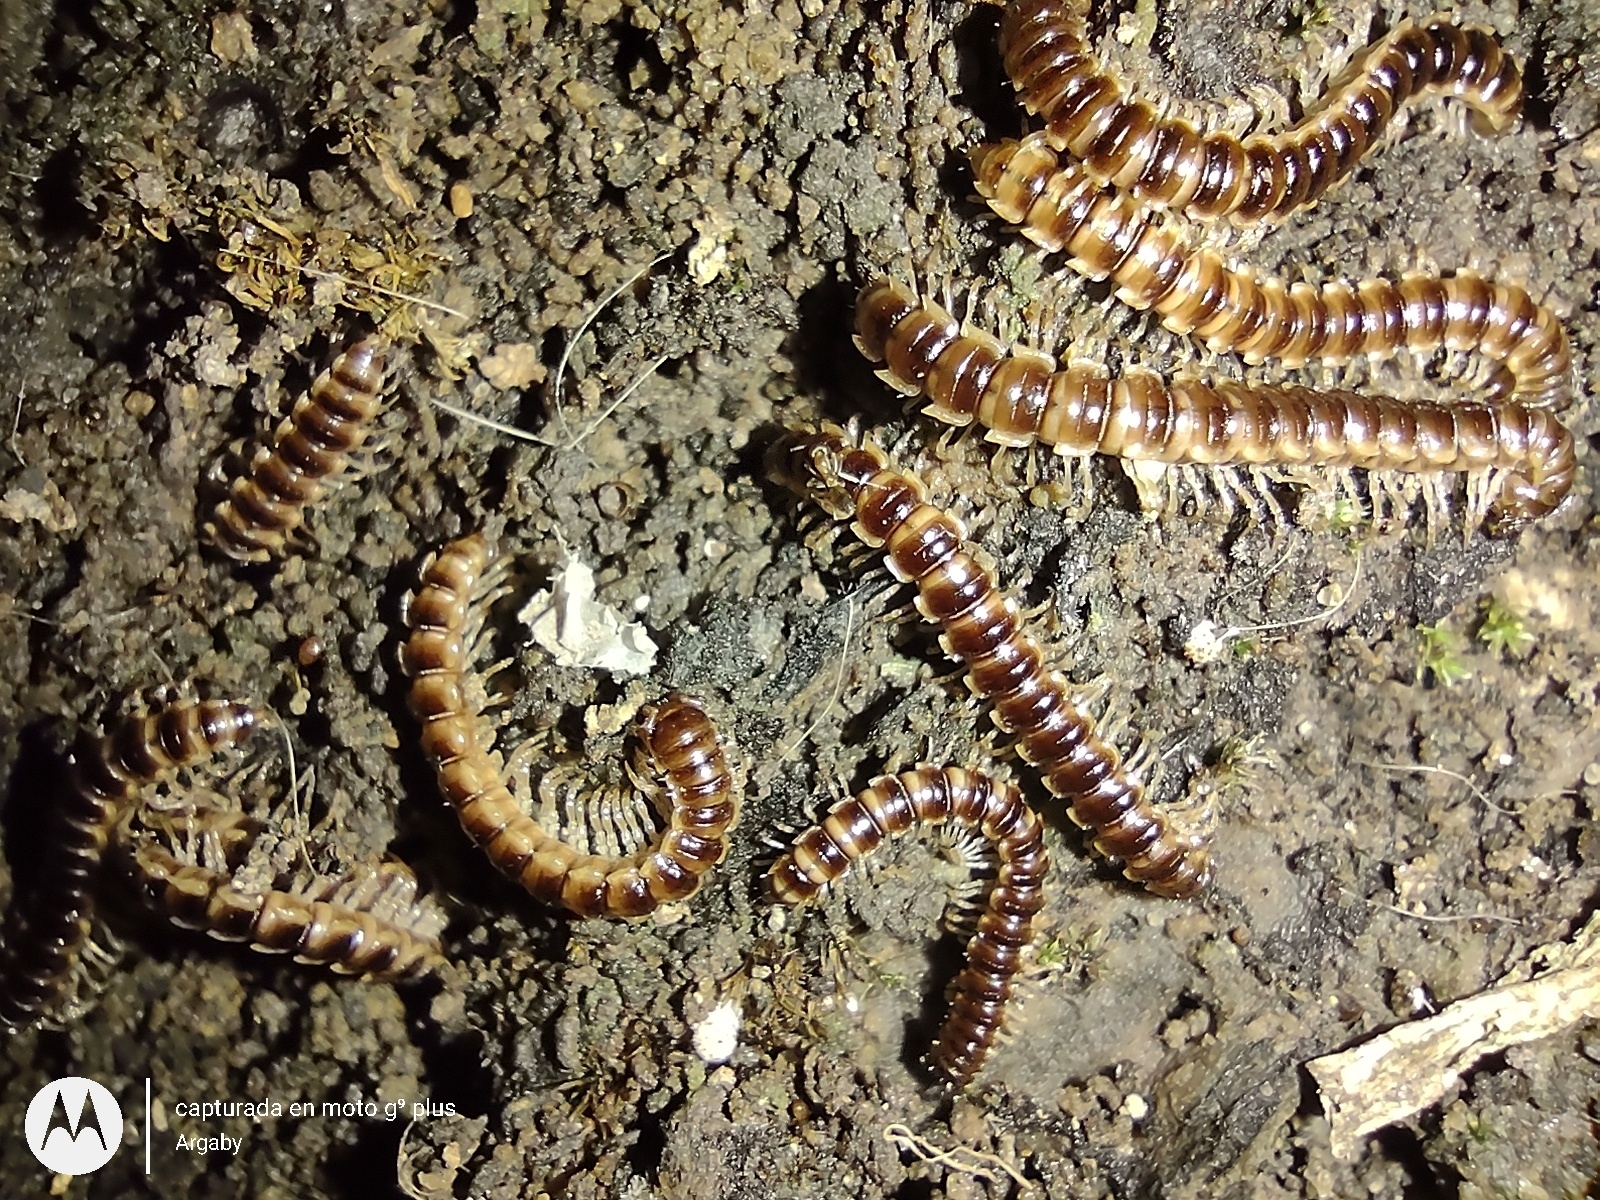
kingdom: Animalia
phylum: Arthropoda
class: Diplopoda
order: Polydesmida
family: Paradoxosomatidae
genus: Oxidus
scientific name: Oxidus gracilis
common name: Greenhouse millipede
